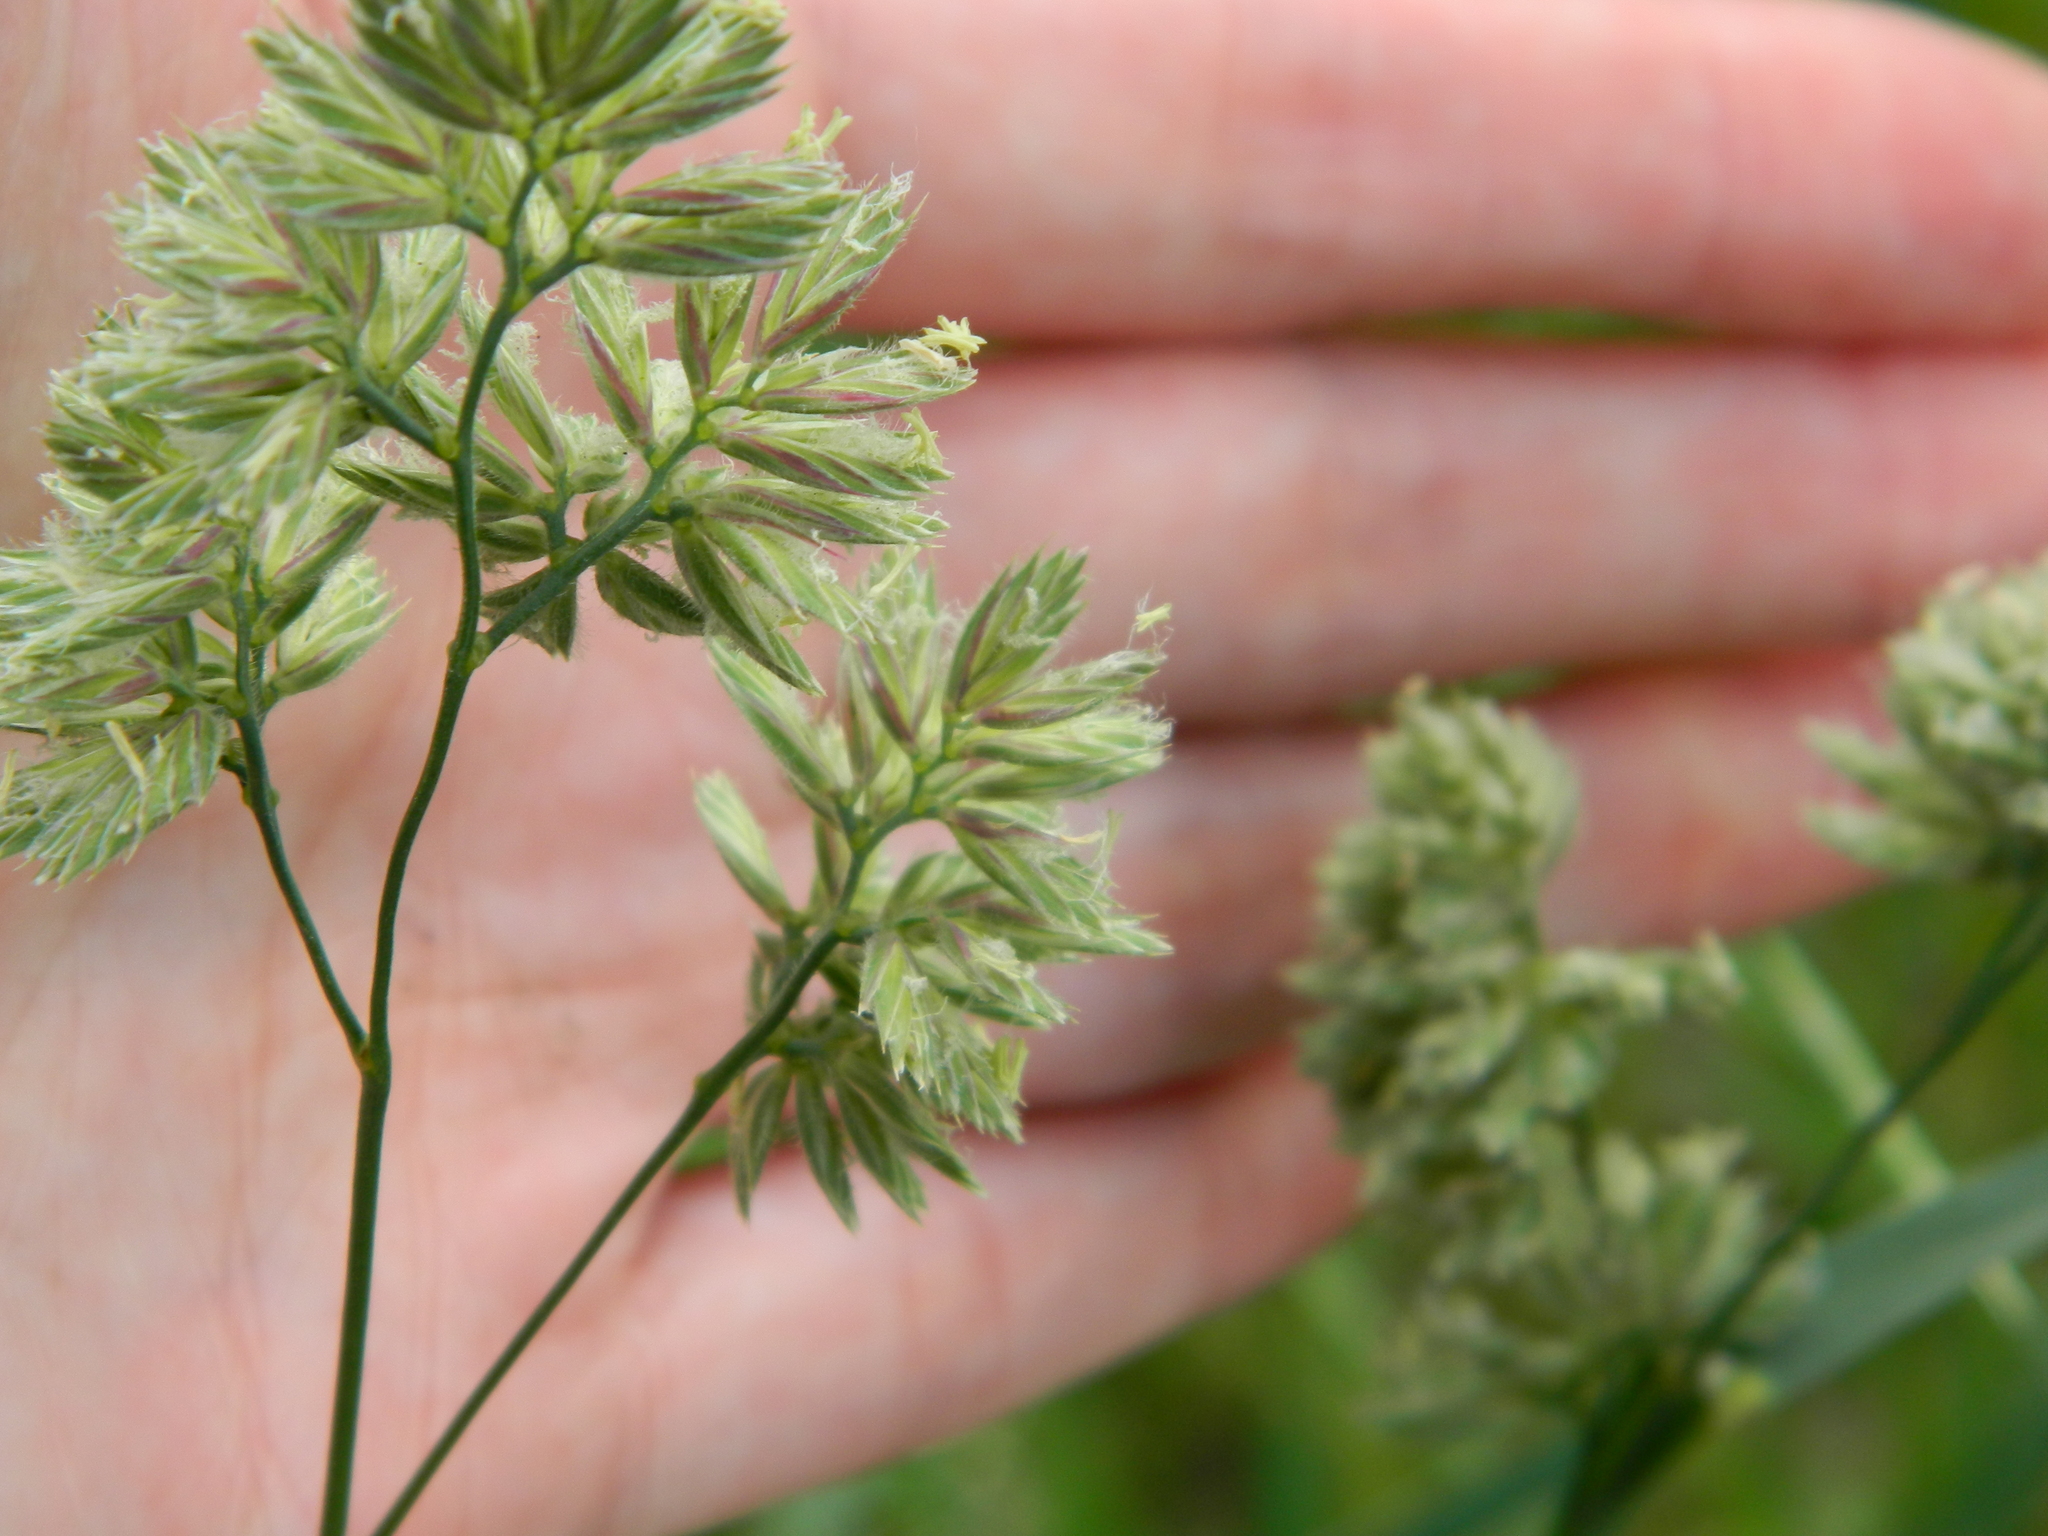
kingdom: Plantae
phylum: Tracheophyta
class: Liliopsida
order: Poales
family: Poaceae
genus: Dactylis
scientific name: Dactylis glomerata
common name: Orchardgrass
